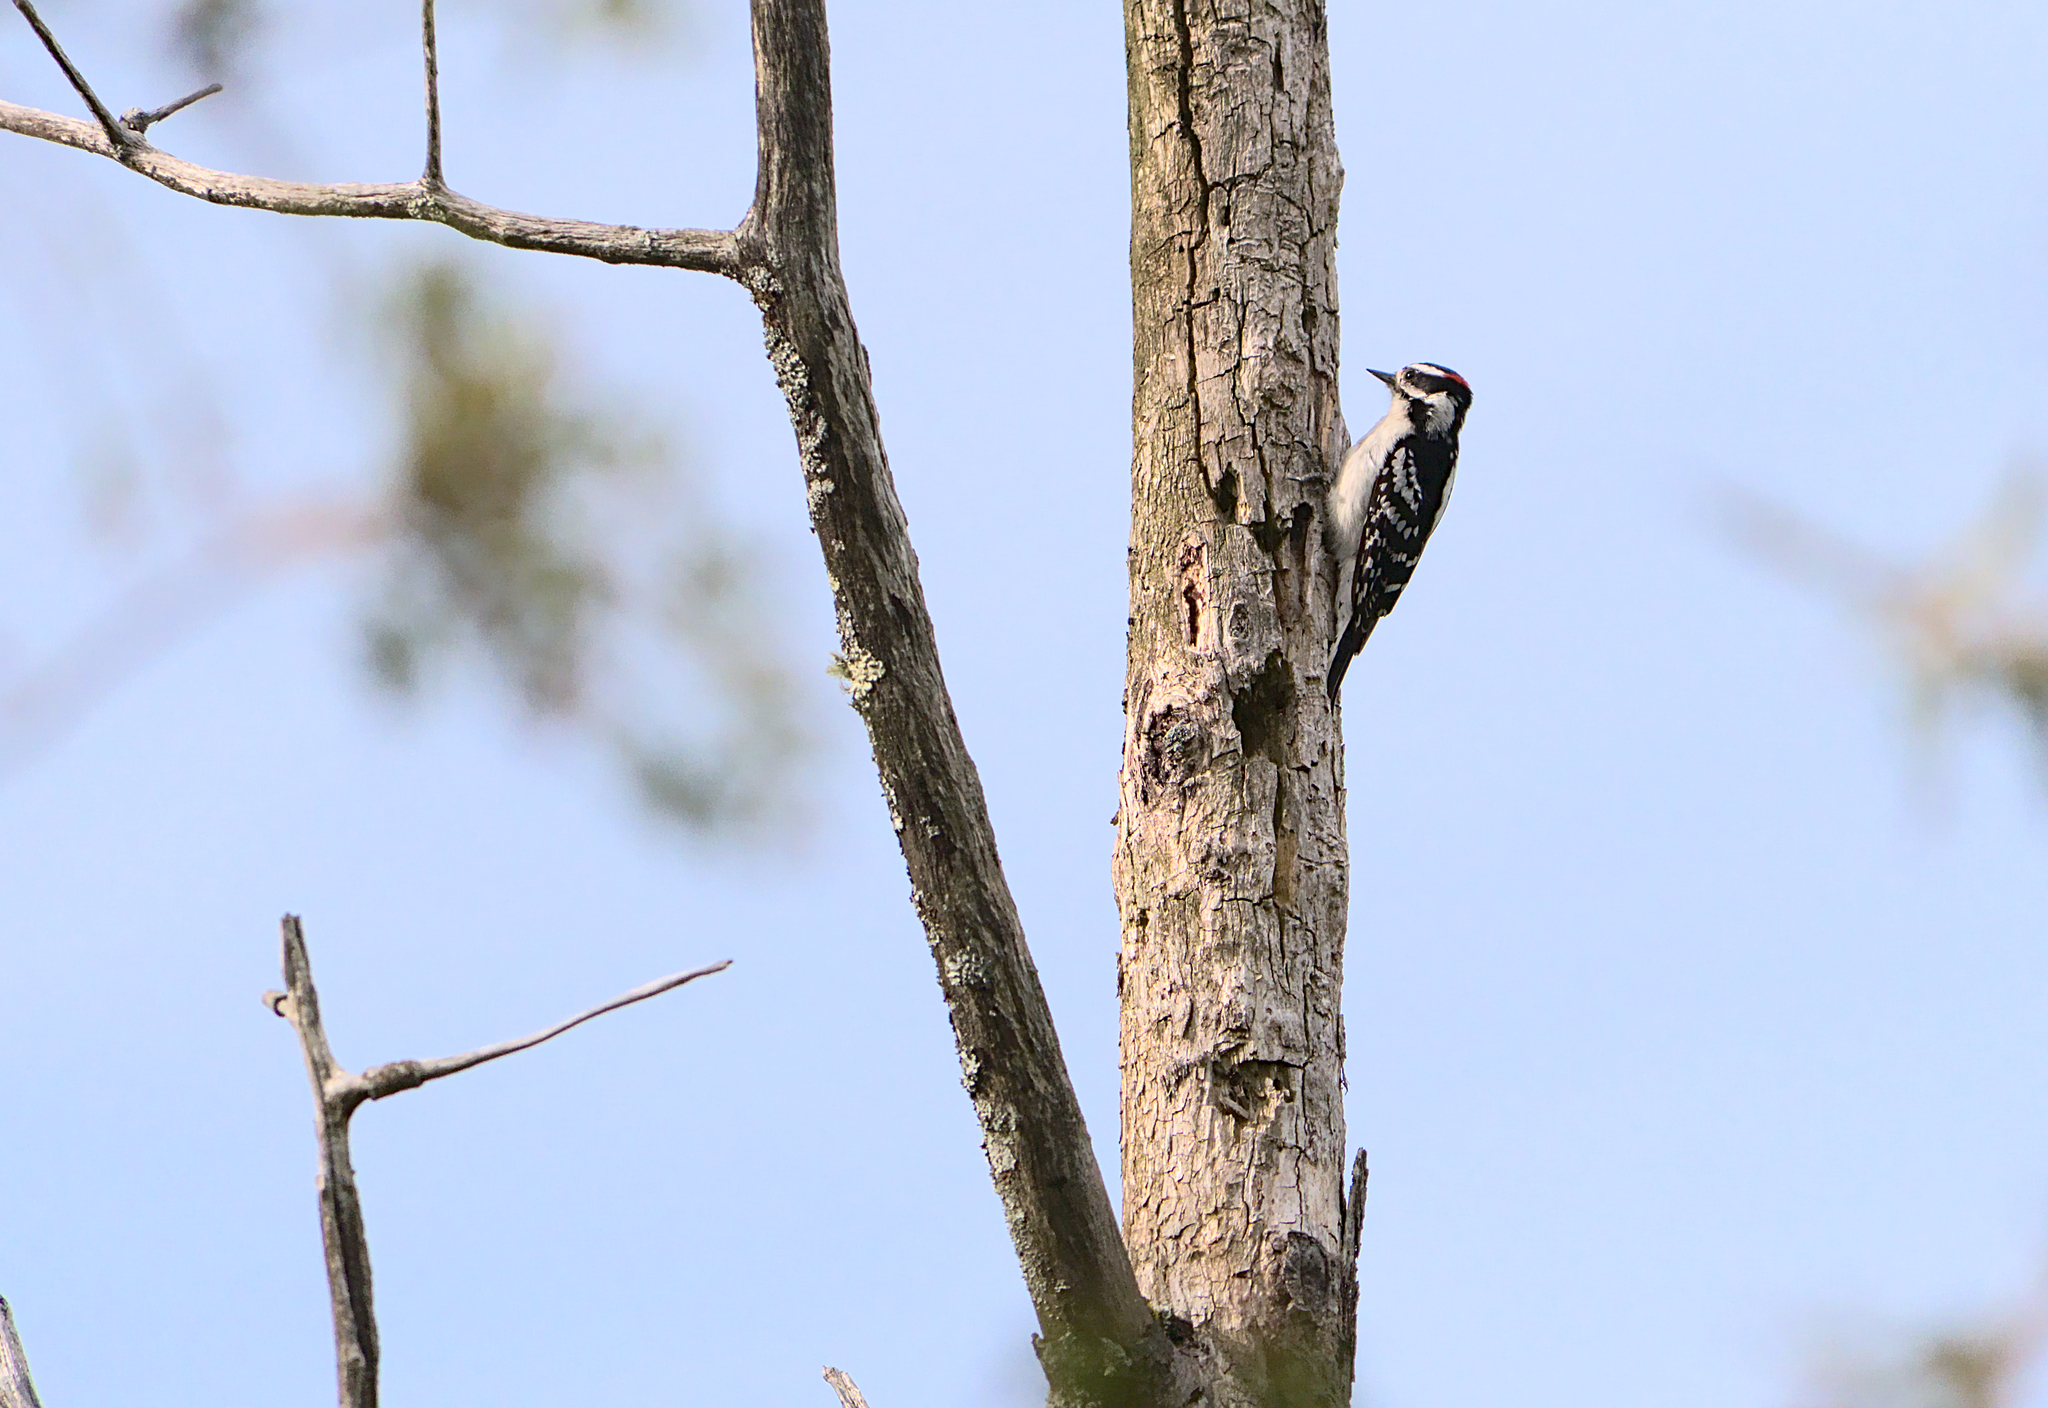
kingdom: Animalia
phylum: Chordata
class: Aves
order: Piciformes
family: Picidae
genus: Dryobates
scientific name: Dryobates pubescens
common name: Downy woodpecker
